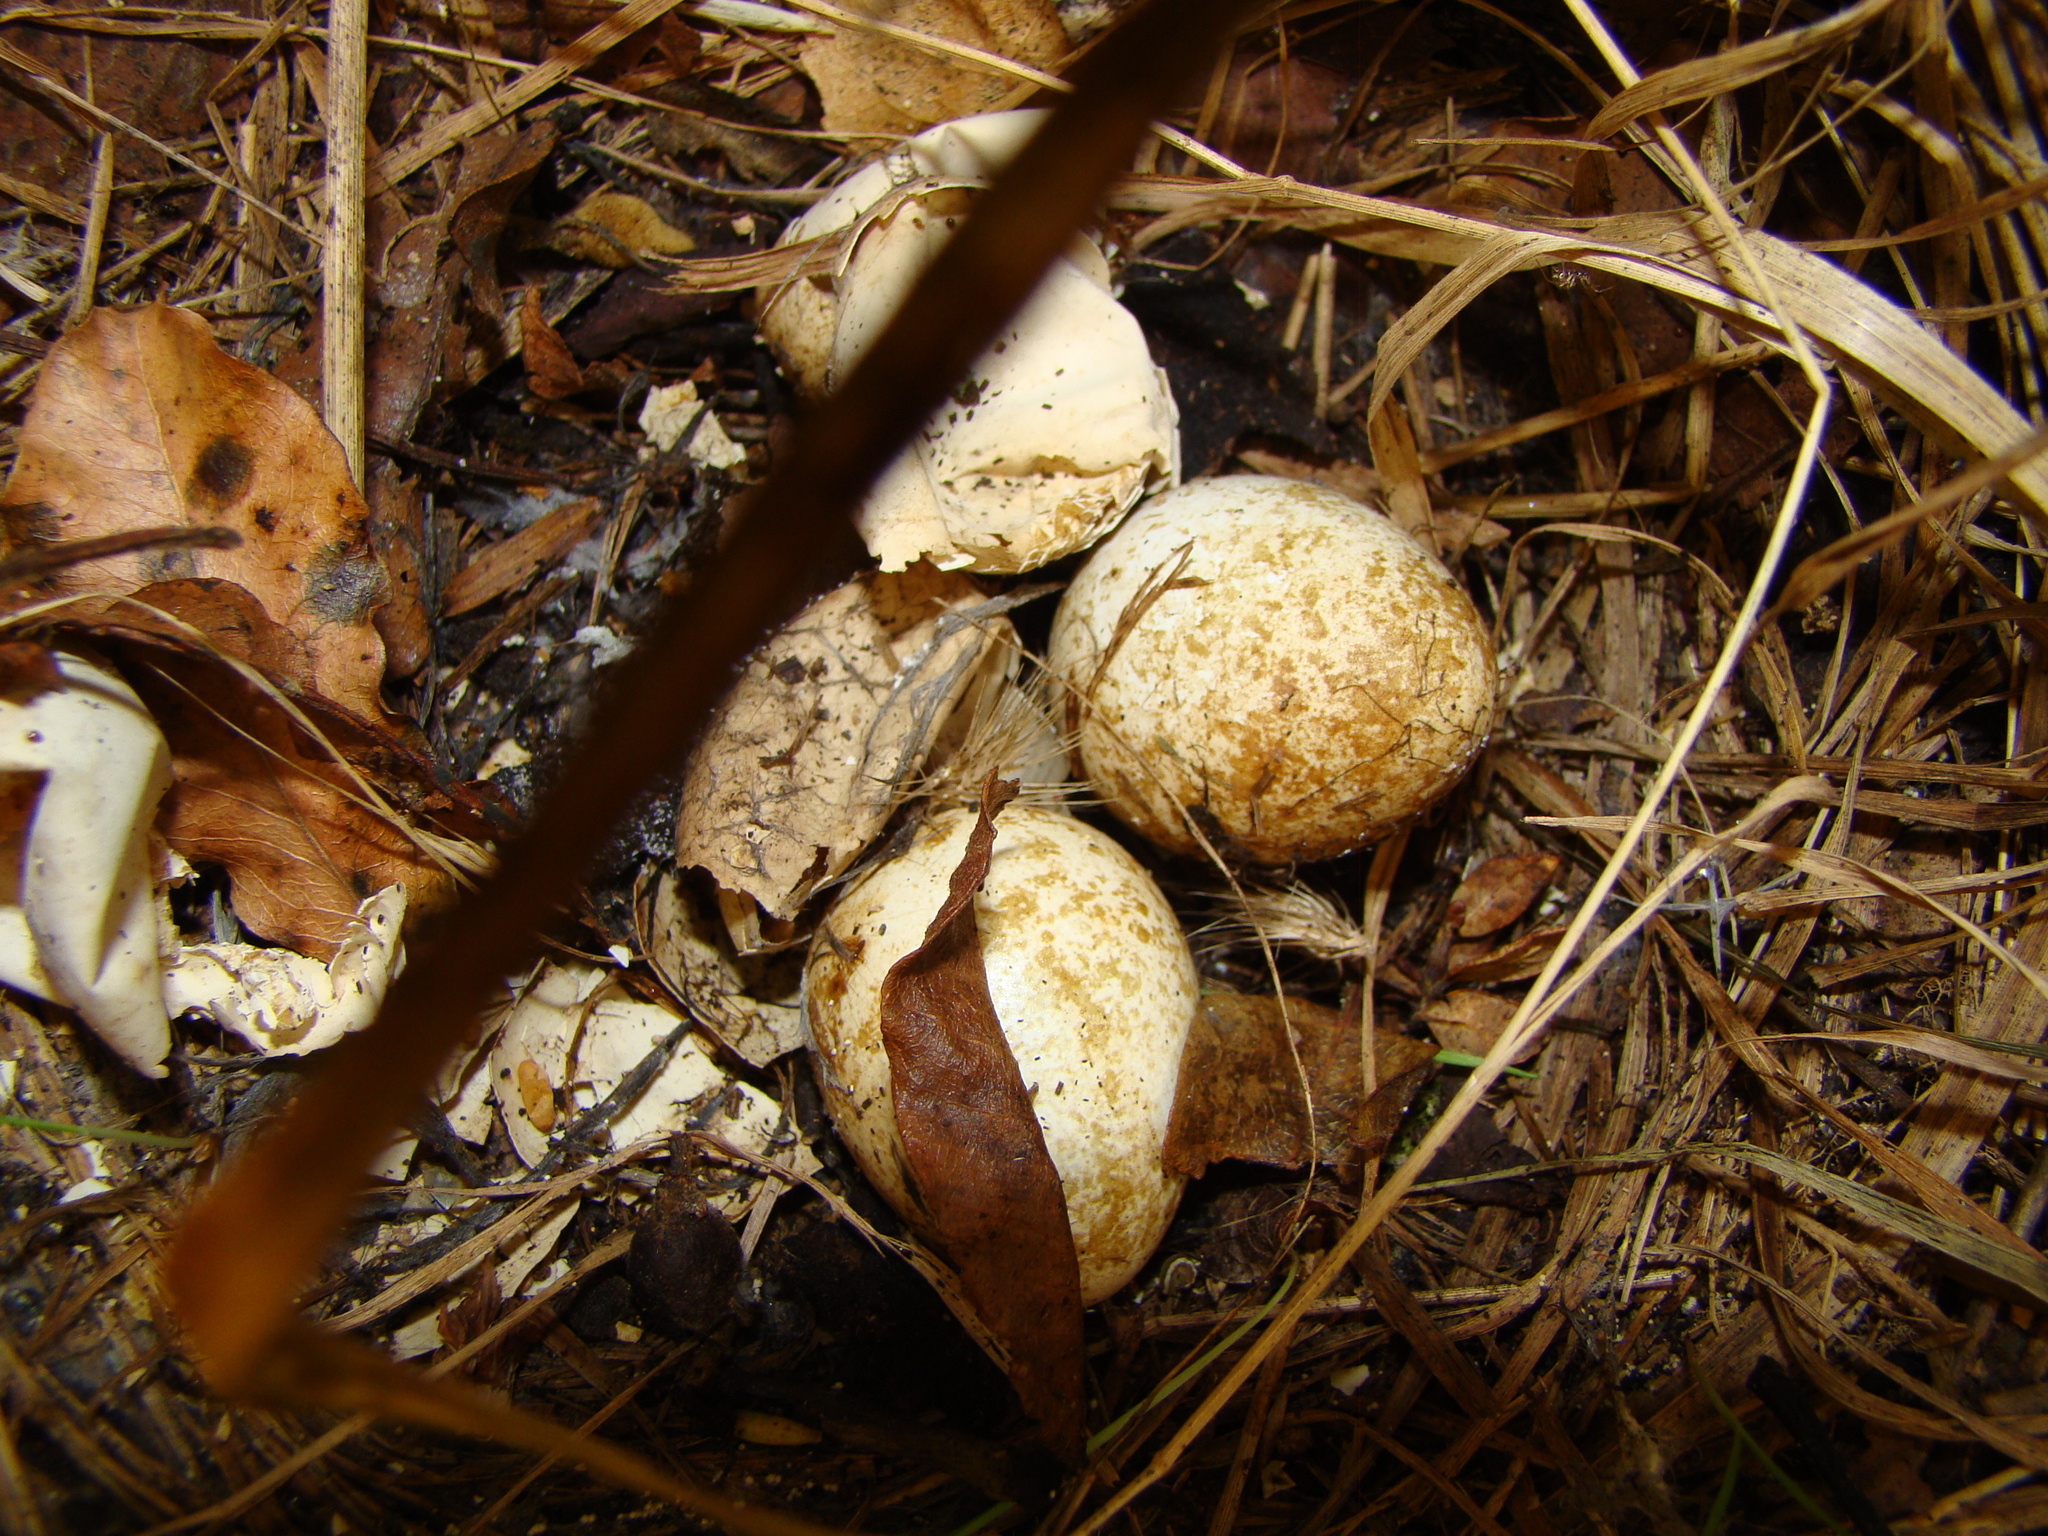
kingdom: Animalia
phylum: Chordata
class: Aves
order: Galliformes
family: Odontophoridae
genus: Callipepla
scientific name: Callipepla californica
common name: California quail
